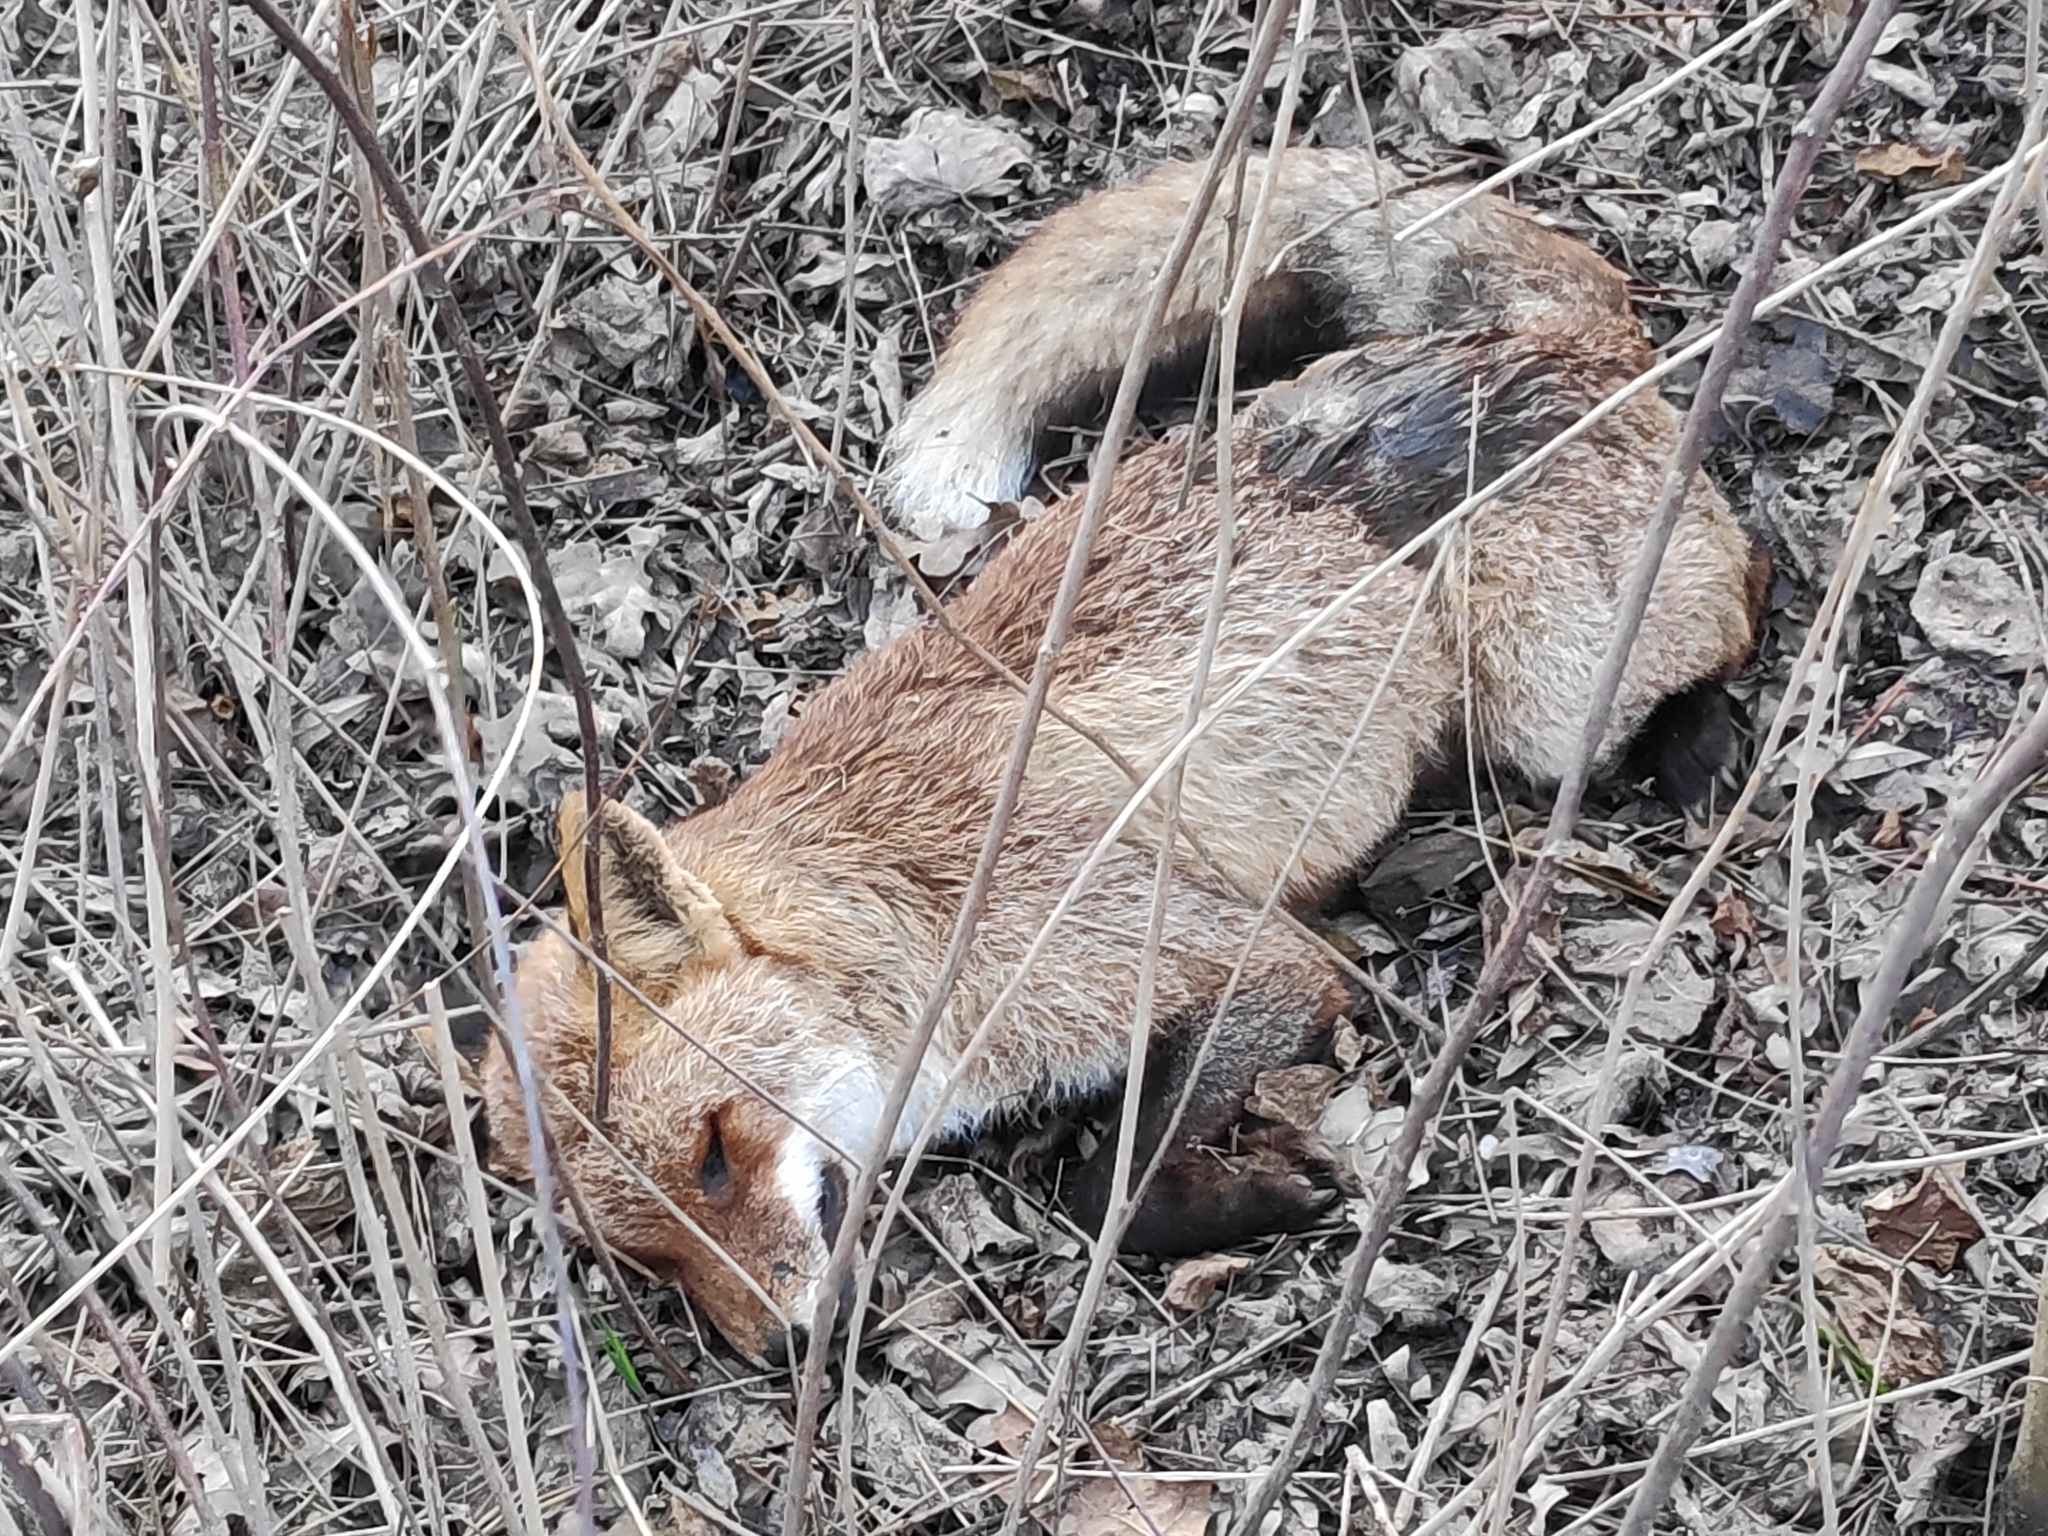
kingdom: Animalia
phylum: Chordata
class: Mammalia
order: Carnivora
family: Canidae
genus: Vulpes
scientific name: Vulpes vulpes
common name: Red fox
